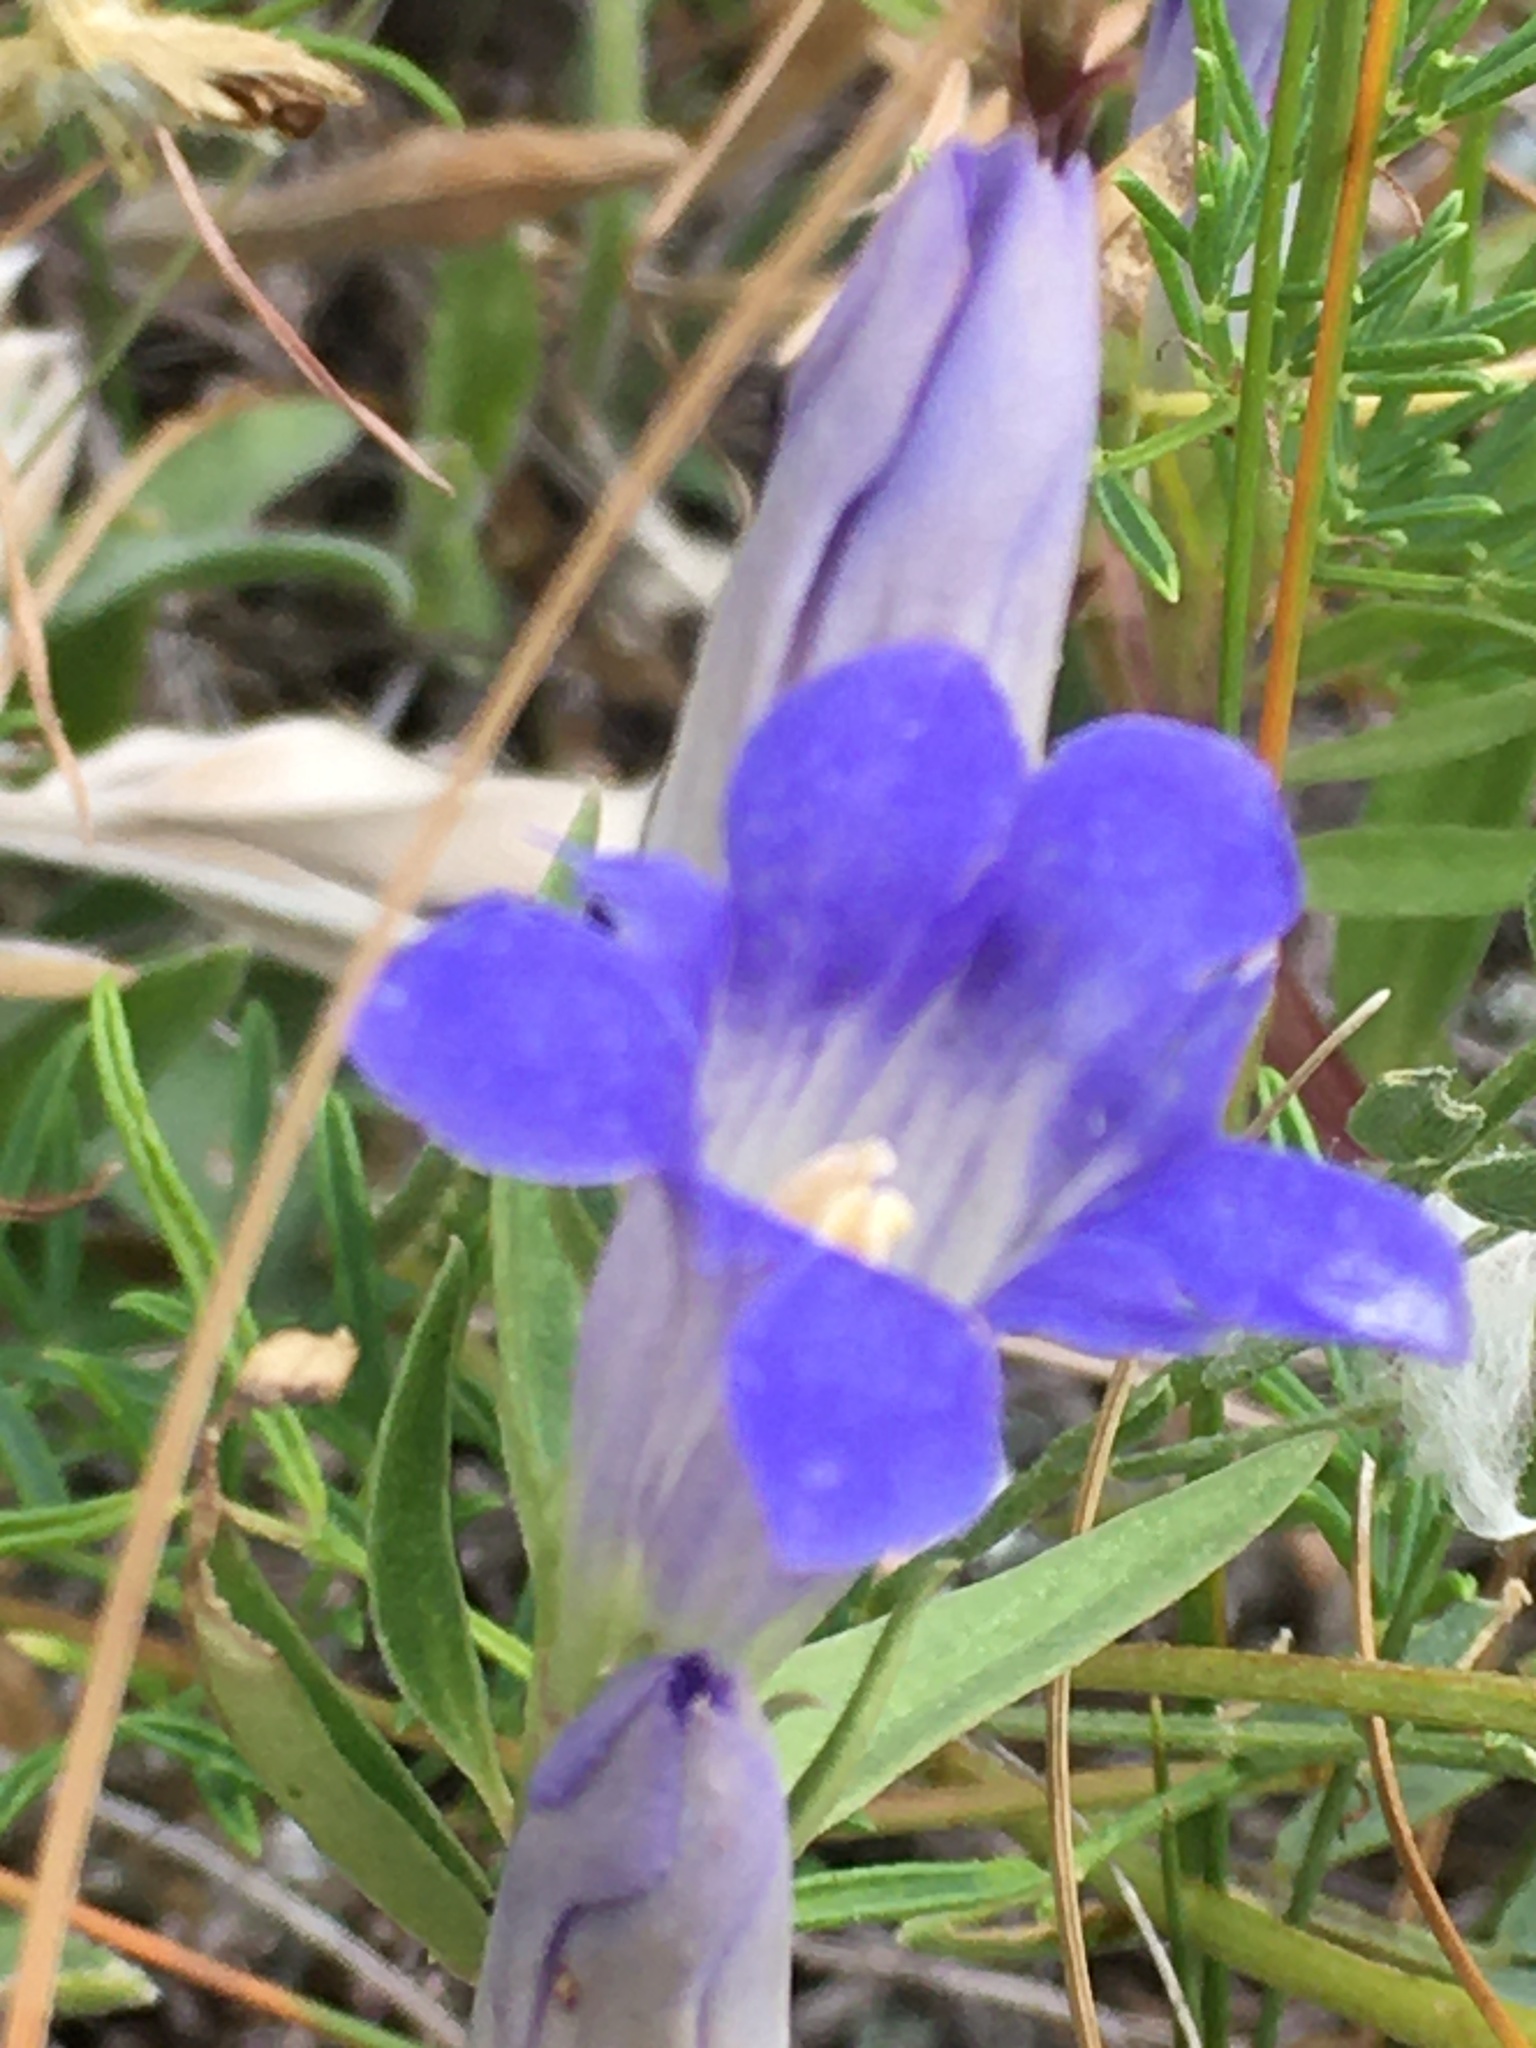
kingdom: Plantae
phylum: Tracheophyta
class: Magnoliopsida
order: Gentianales
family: Gentianaceae
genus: Gentiana
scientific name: Gentiana affinis
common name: Rocky mountain gentian
